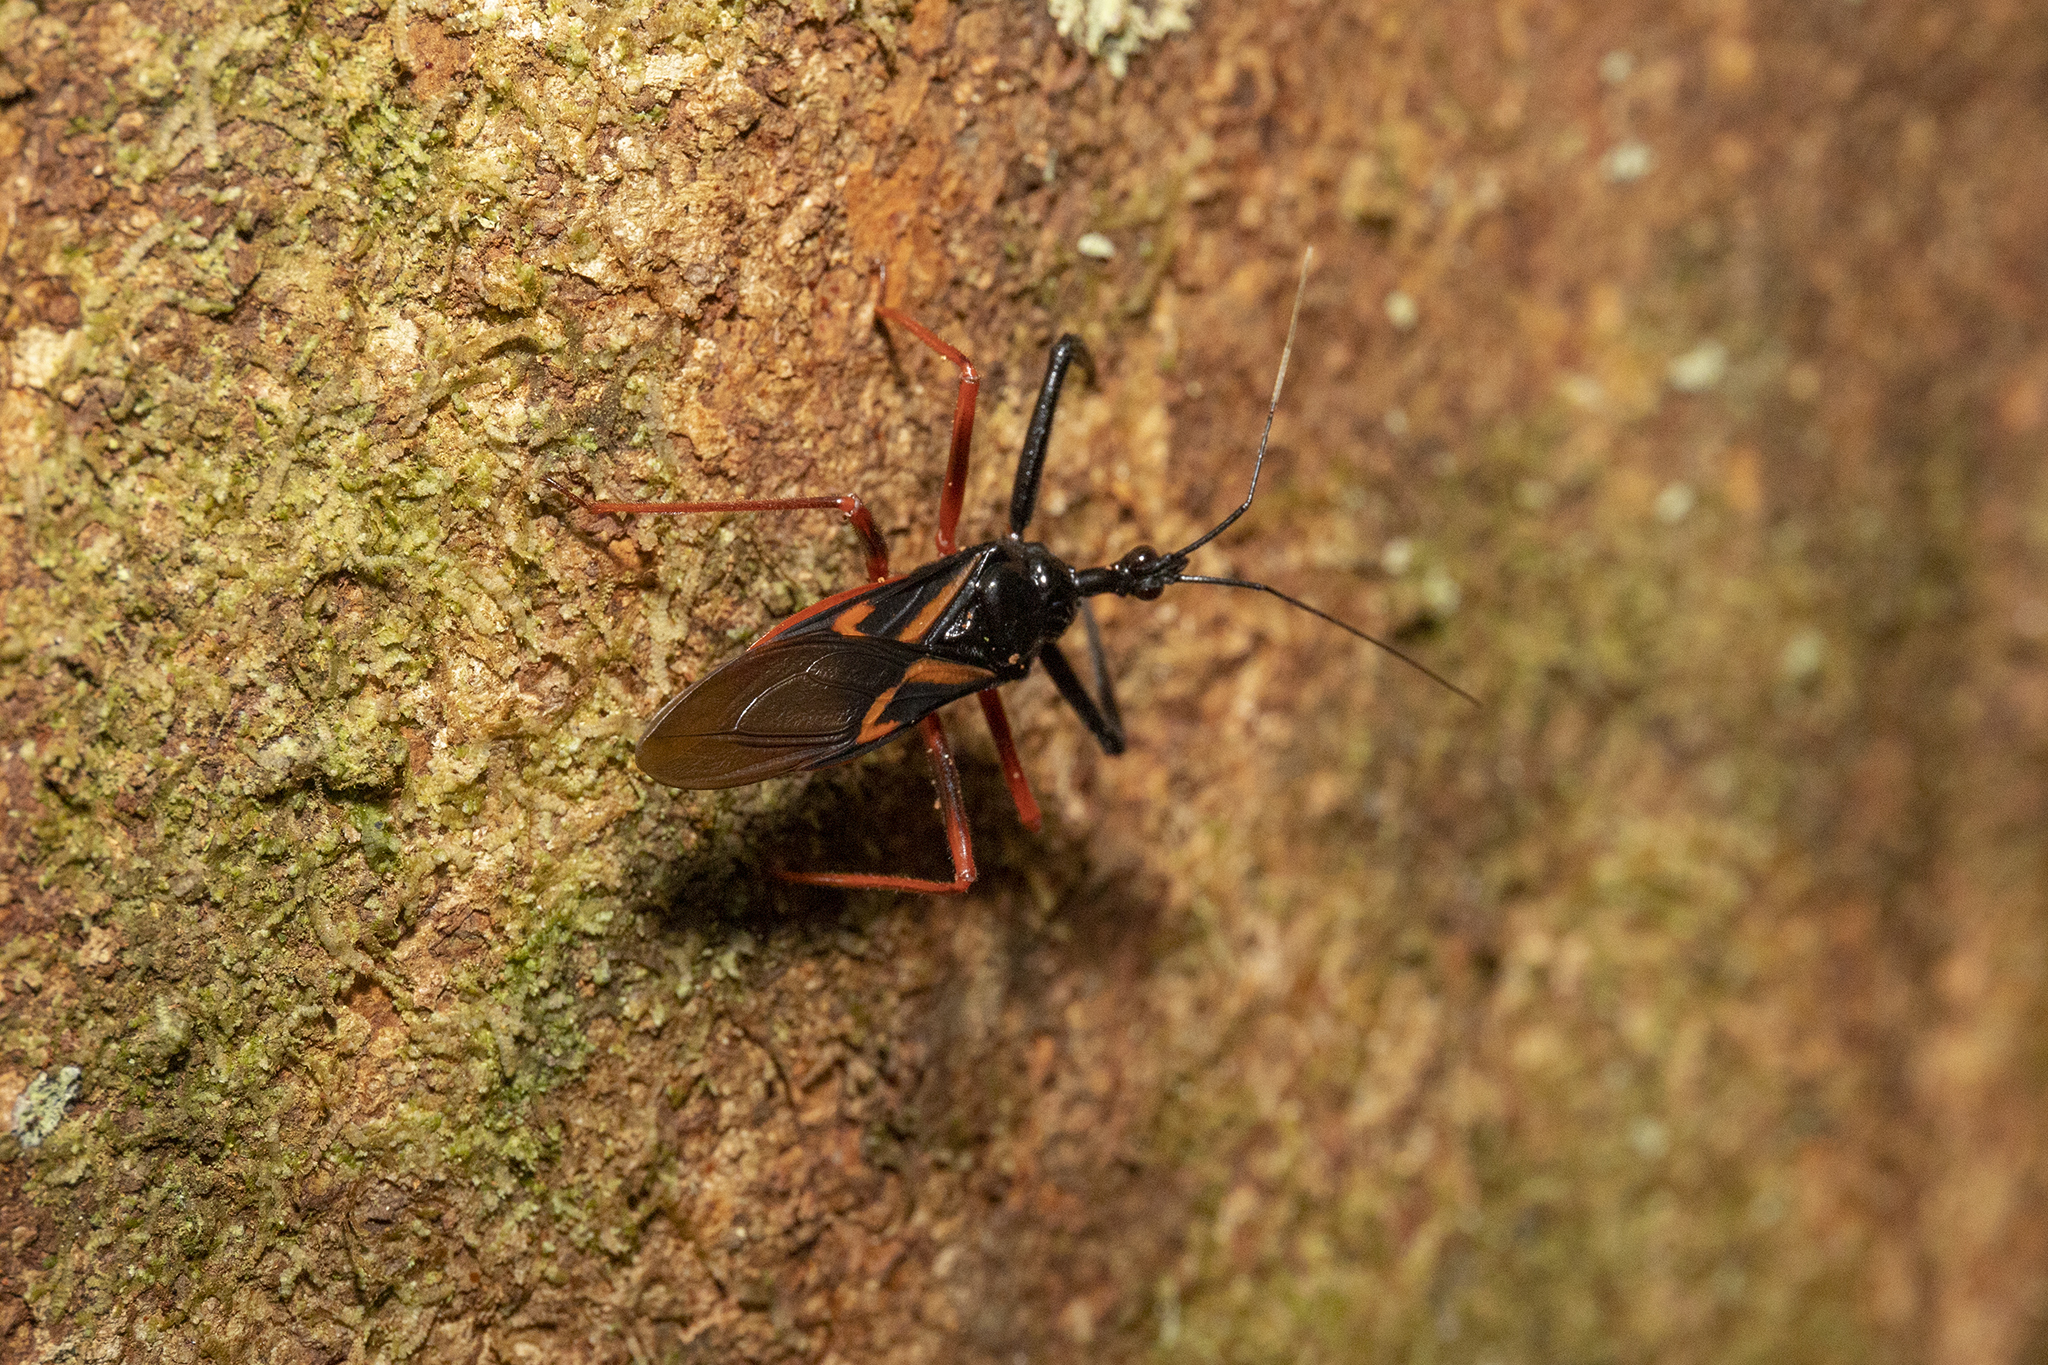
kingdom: Animalia
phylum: Arthropoda
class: Insecta
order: Hemiptera
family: Reduviidae
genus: Manicocoris
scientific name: Manicocoris rufipes
